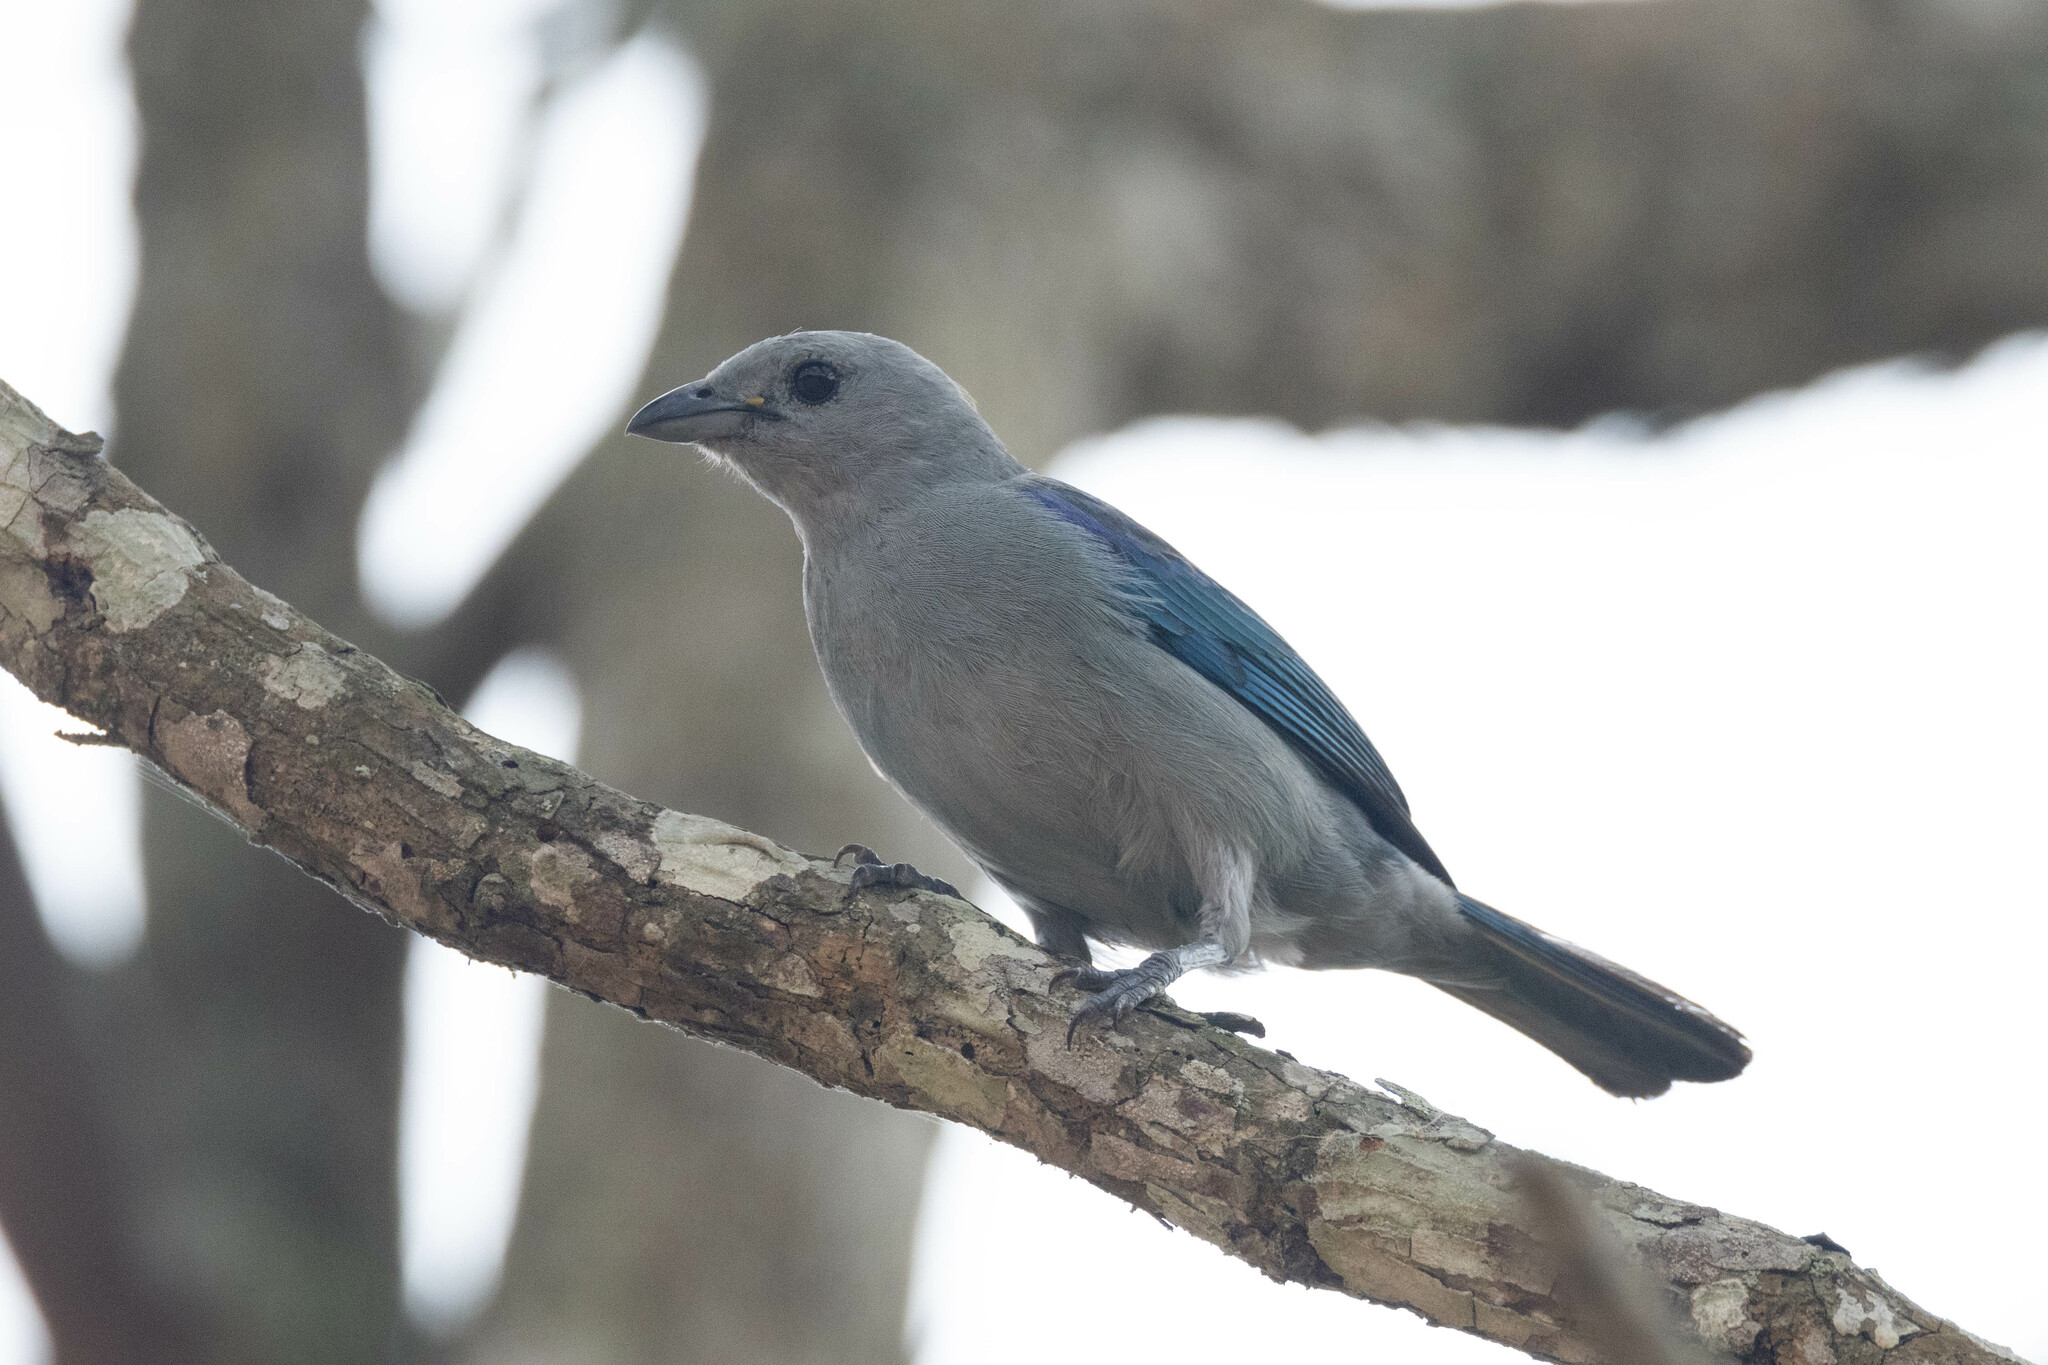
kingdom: Animalia
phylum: Chordata
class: Aves
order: Passeriformes
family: Thraupidae
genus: Thraupis
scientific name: Thraupis episcopus
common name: Blue-grey tanager
